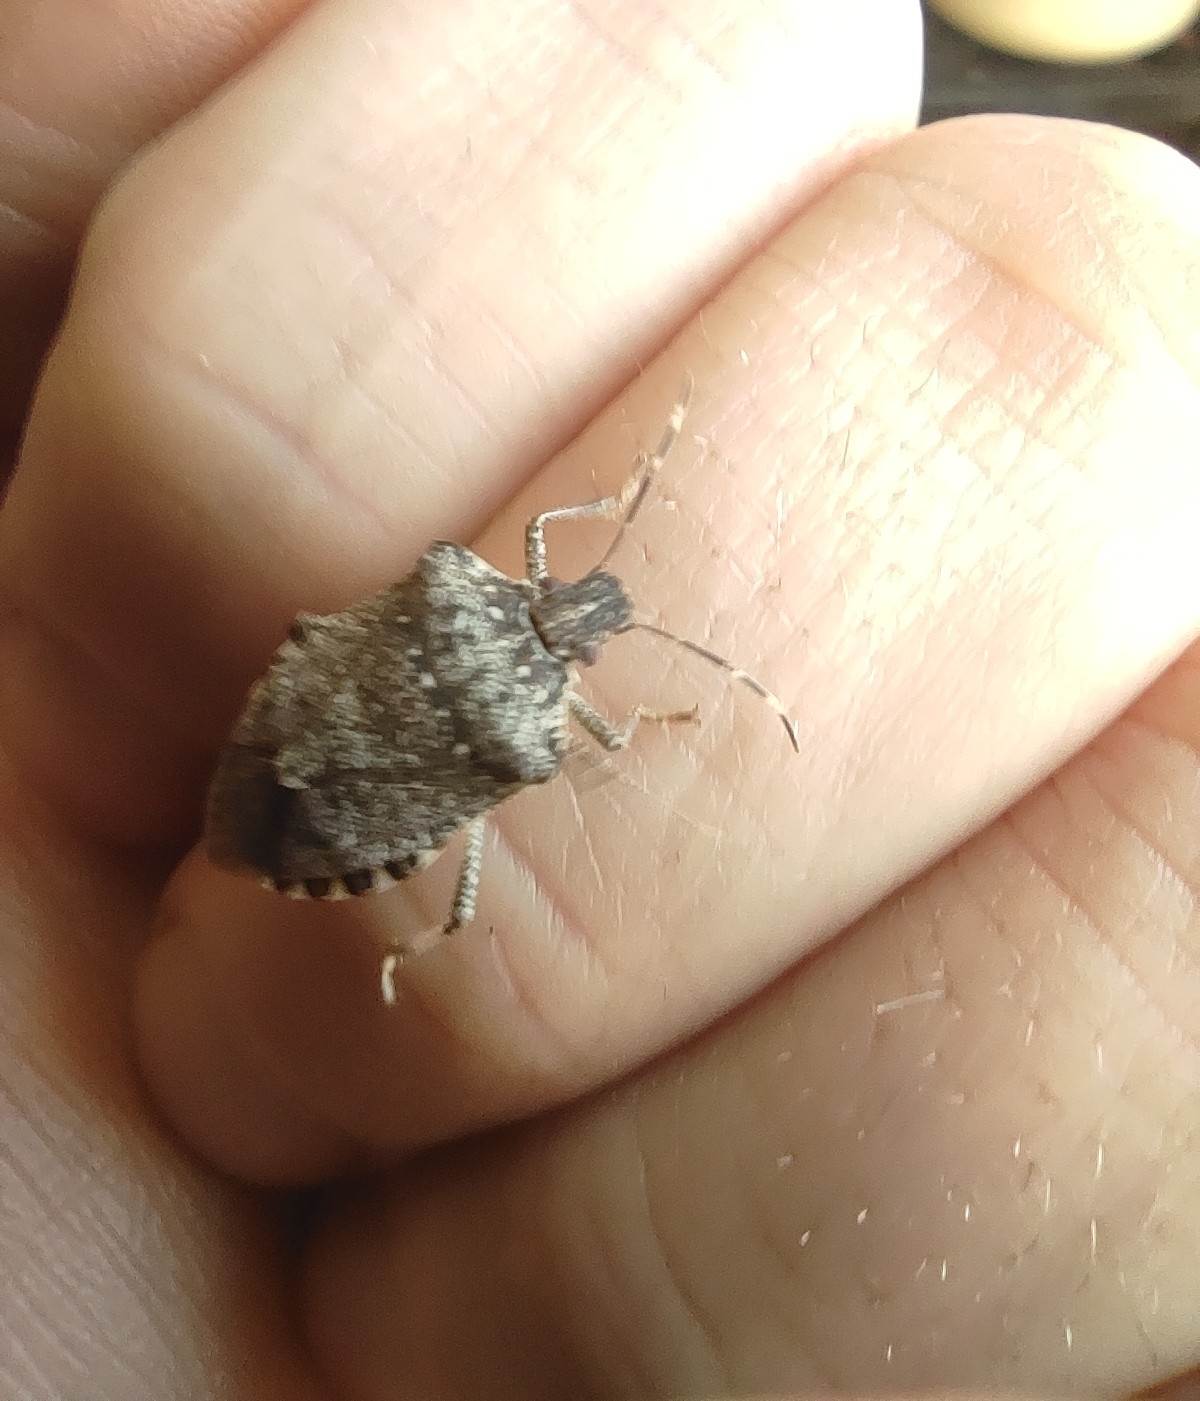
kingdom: Animalia
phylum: Arthropoda
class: Insecta
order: Hemiptera
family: Pentatomidae
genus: Halyomorpha
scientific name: Halyomorpha halys
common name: Brown marmorated stink bug
